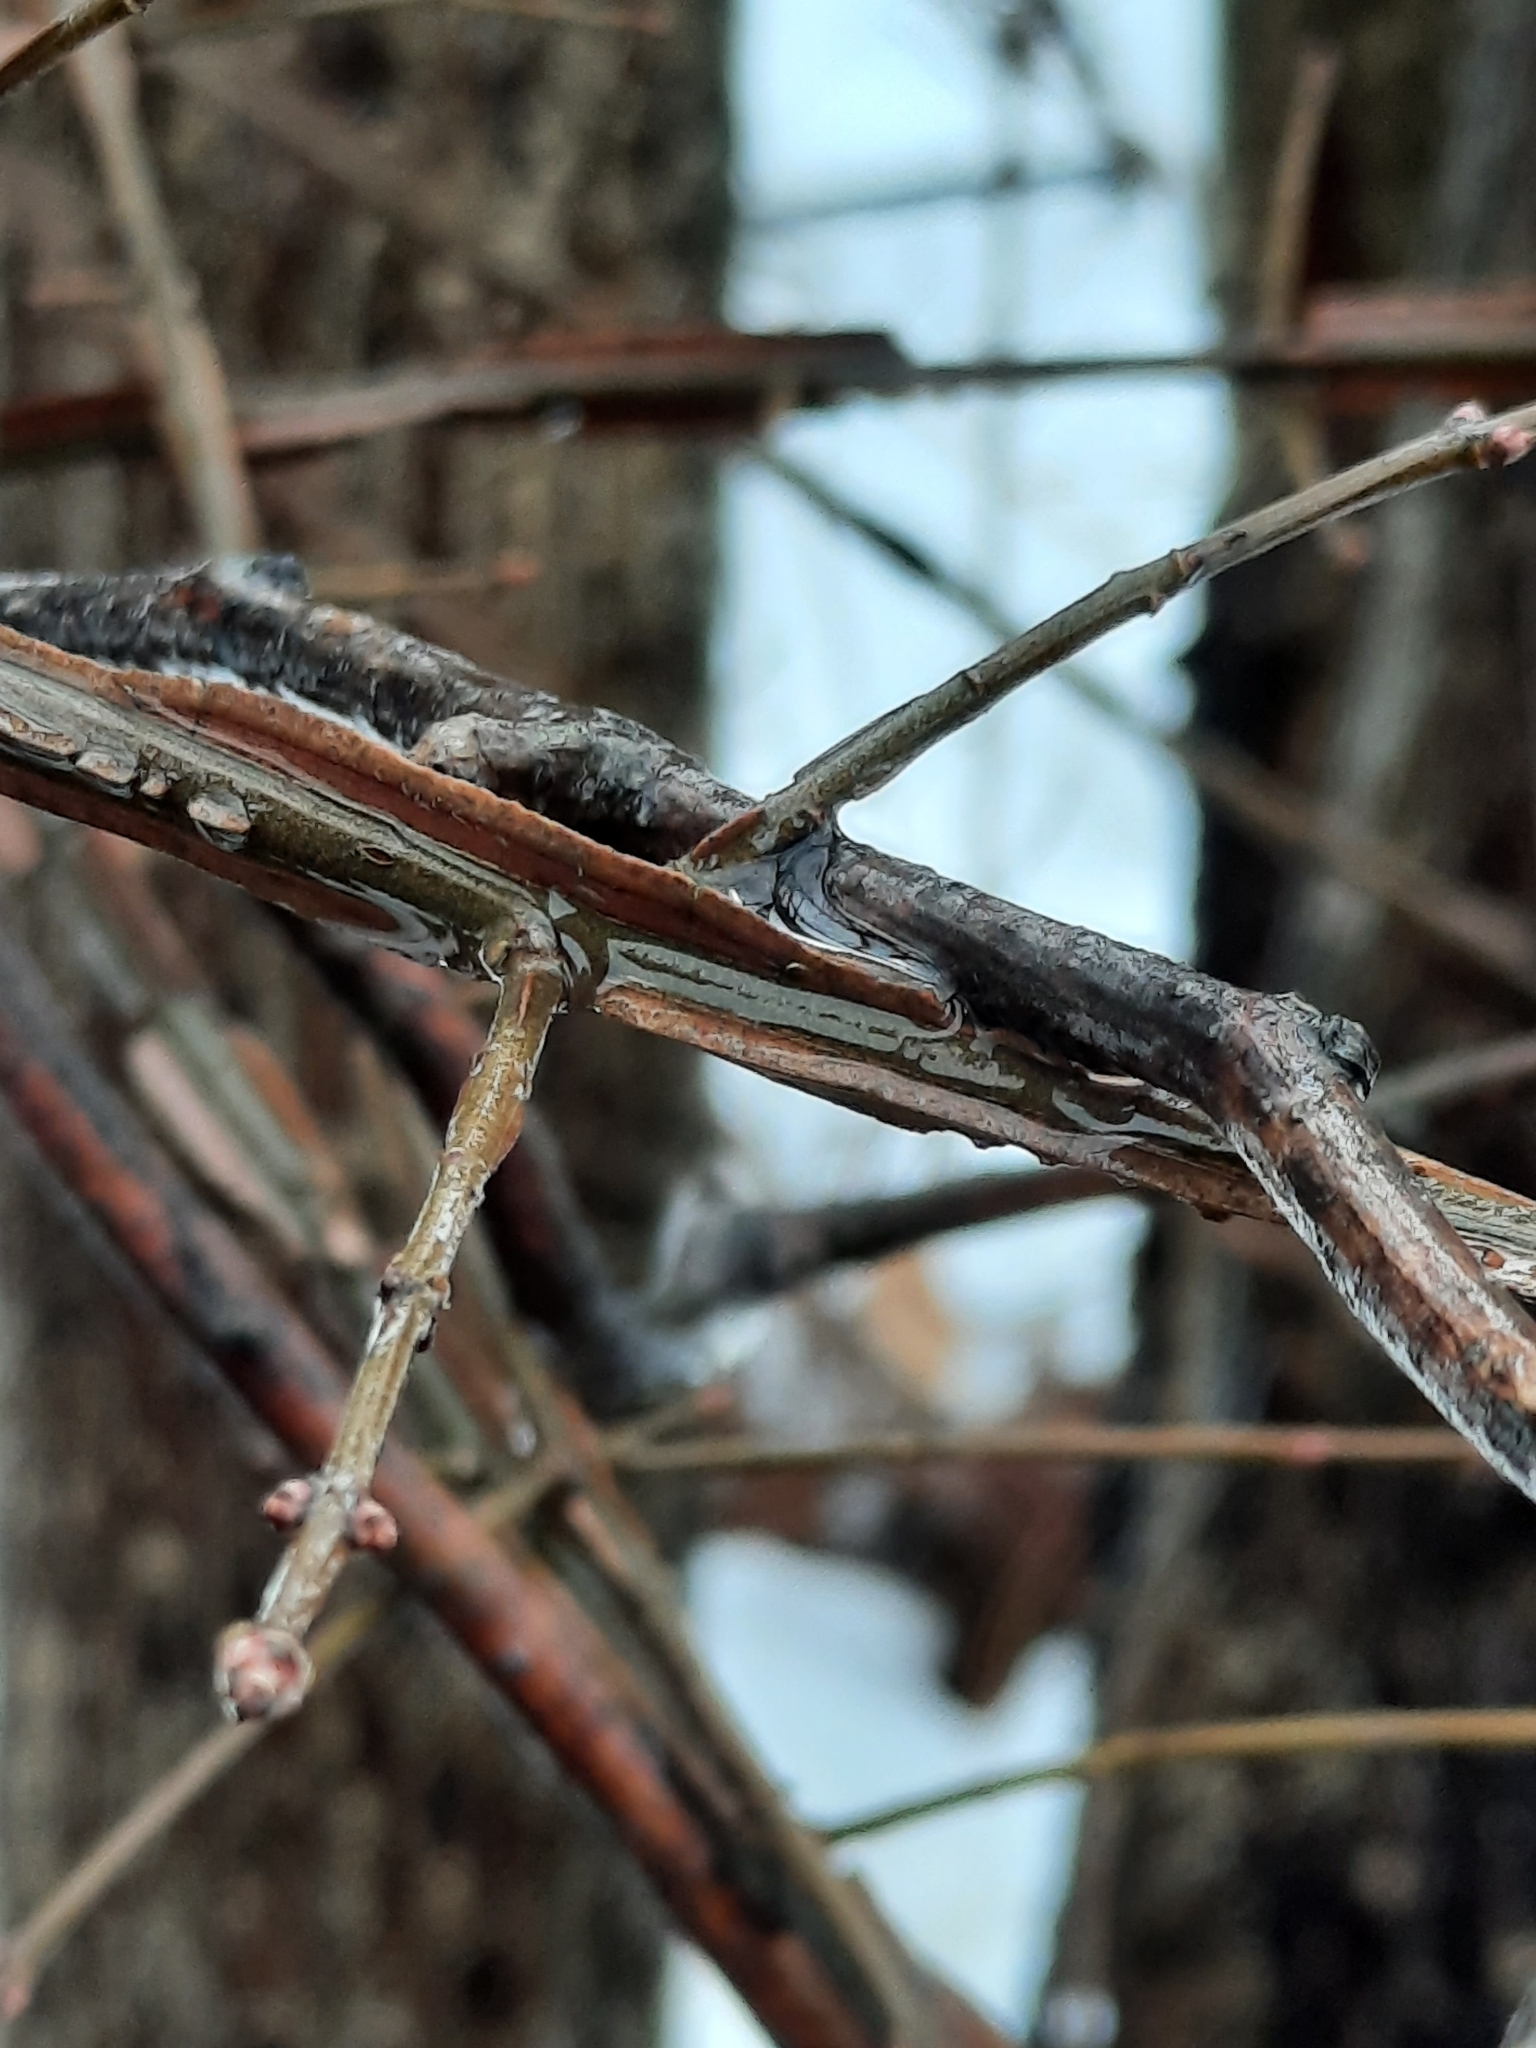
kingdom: Plantae
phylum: Tracheophyta
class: Magnoliopsida
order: Celastrales
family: Celastraceae
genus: Euonymus
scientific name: Euonymus alatus
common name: Winged euonymus
